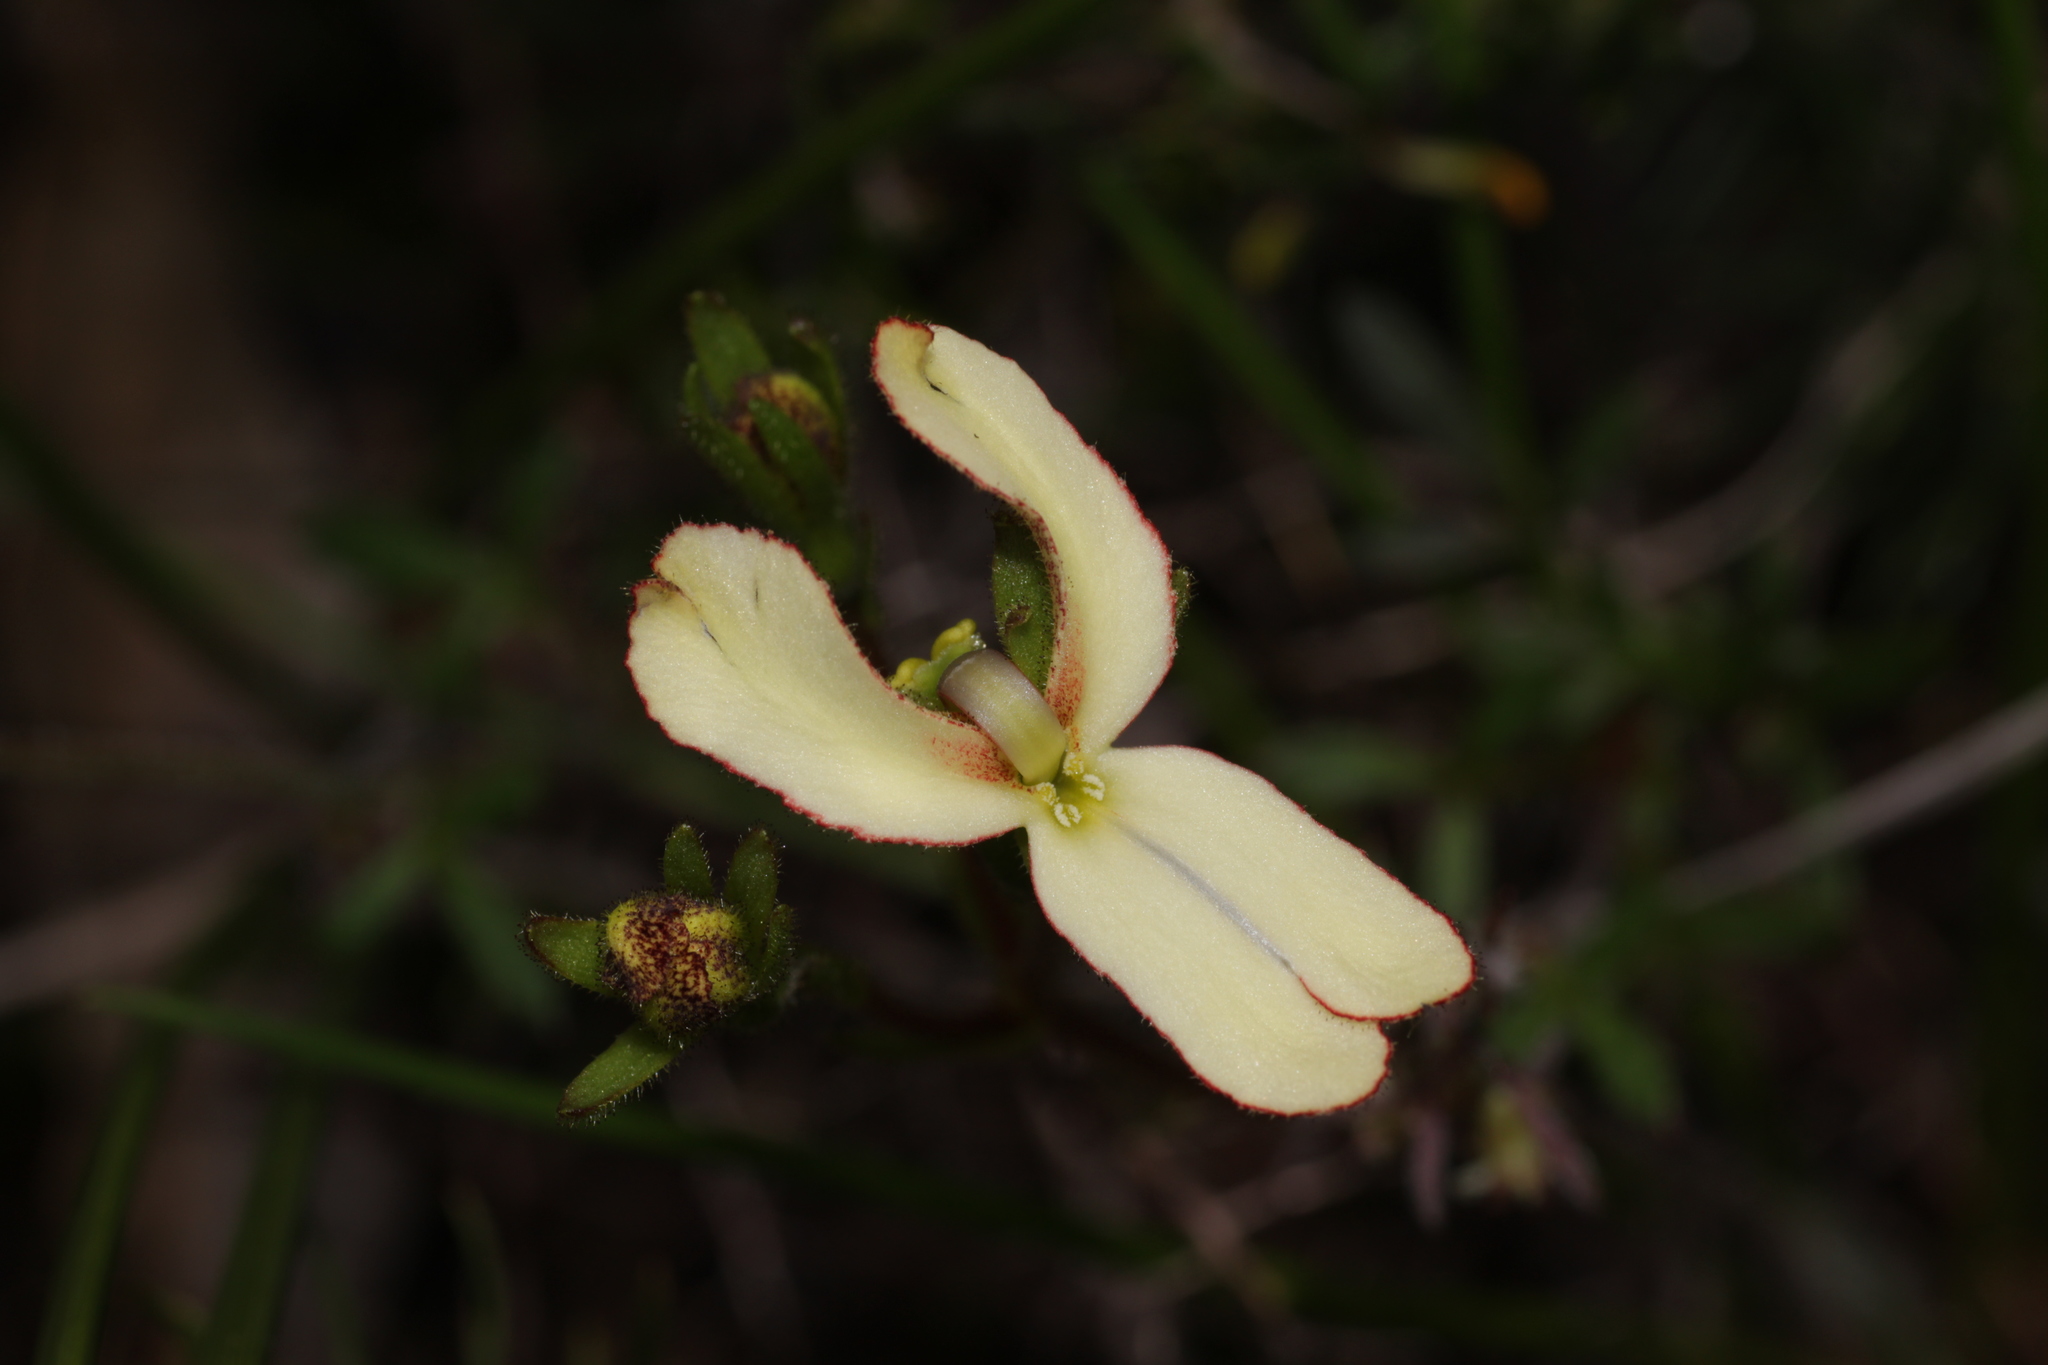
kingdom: Plantae
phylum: Tracheophyta
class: Magnoliopsida
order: Asterales
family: Stylidiaceae
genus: Stylidium
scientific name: Stylidium schoenoides
